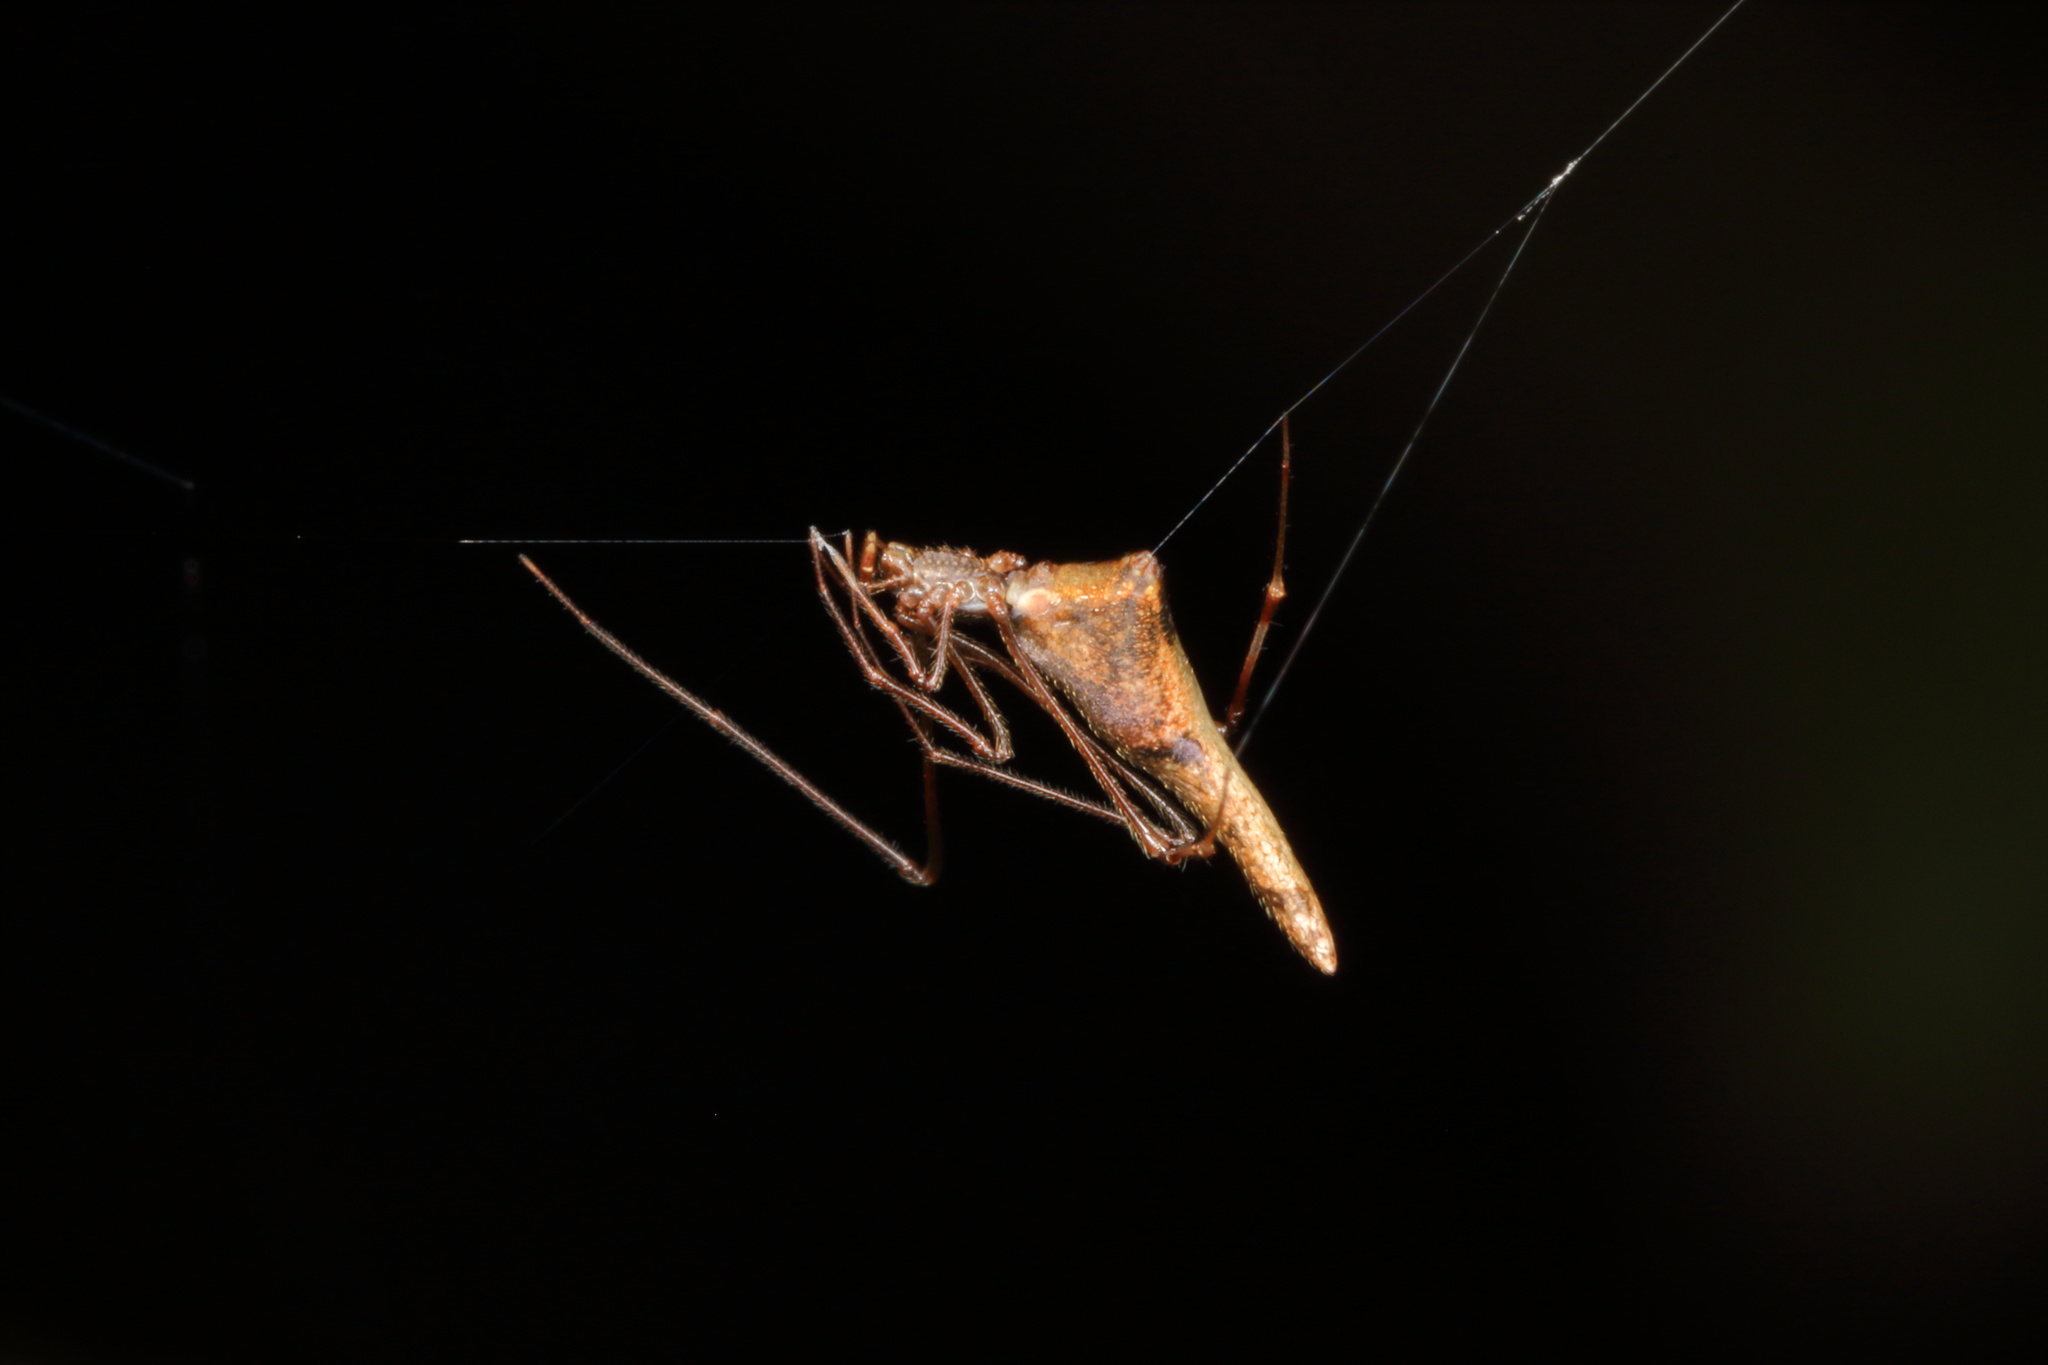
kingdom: Animalia
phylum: Arthropoda
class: Arachnida
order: Araneae
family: Theridiidae
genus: Rhomphaea
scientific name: Rhomphaea urquharti
